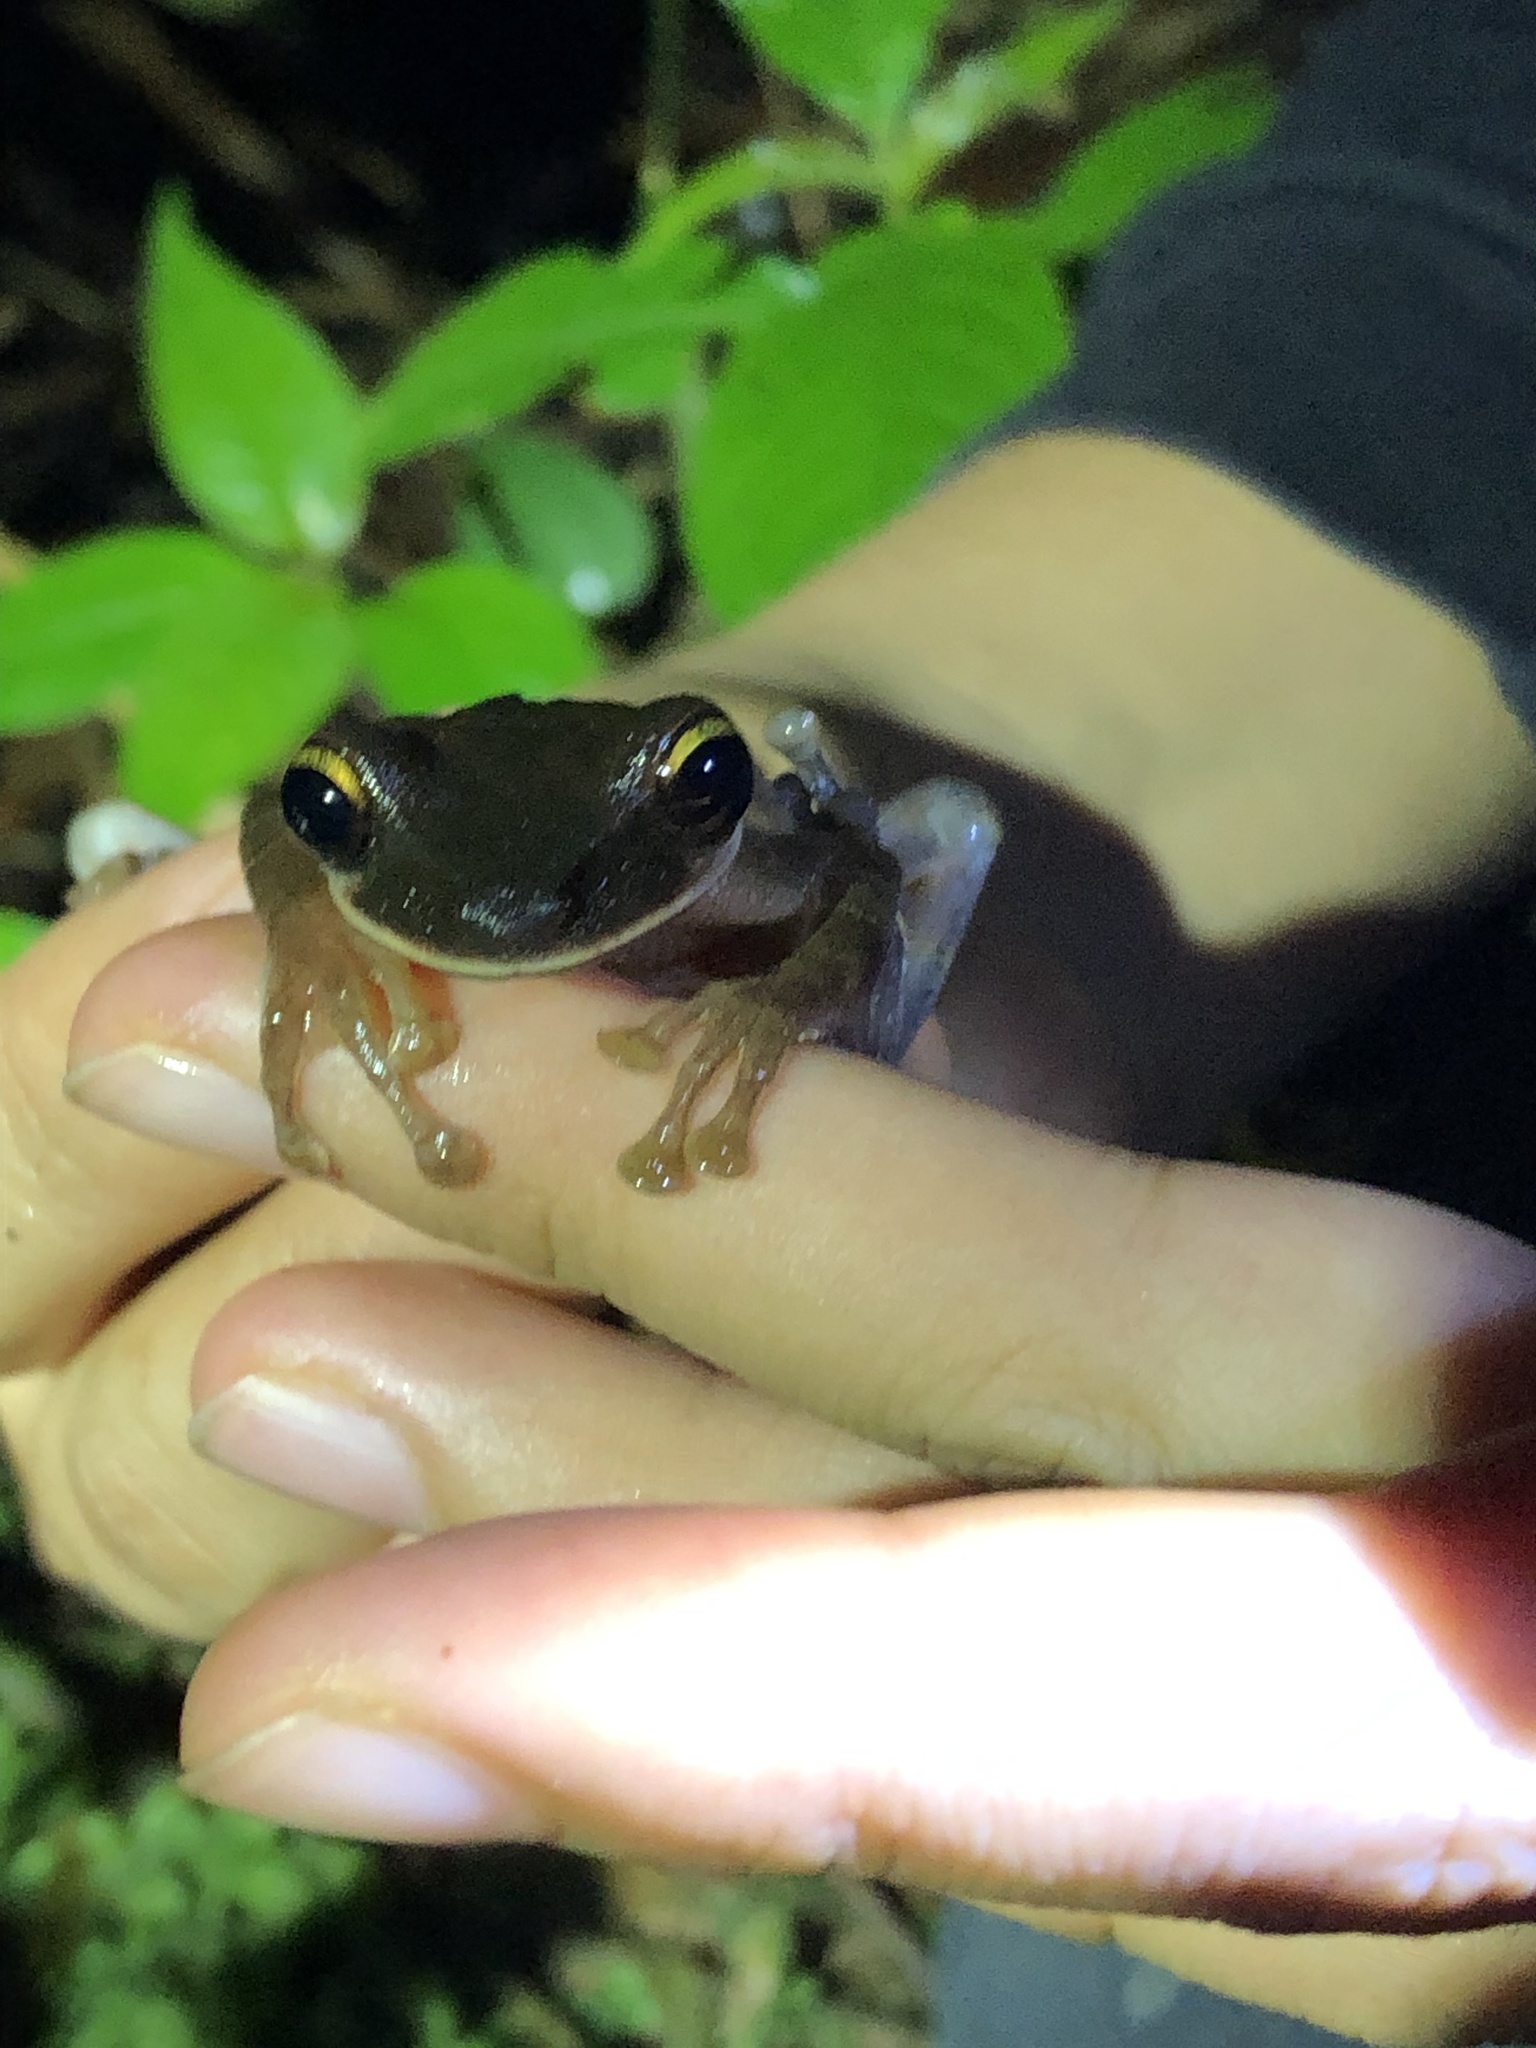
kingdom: Animalia
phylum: Chordata
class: Amphibia
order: Anura
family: Hylidae
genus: Osteocephalus
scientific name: Osteocephalus castaneicola
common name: Chestnut's slender-legged treefrog
